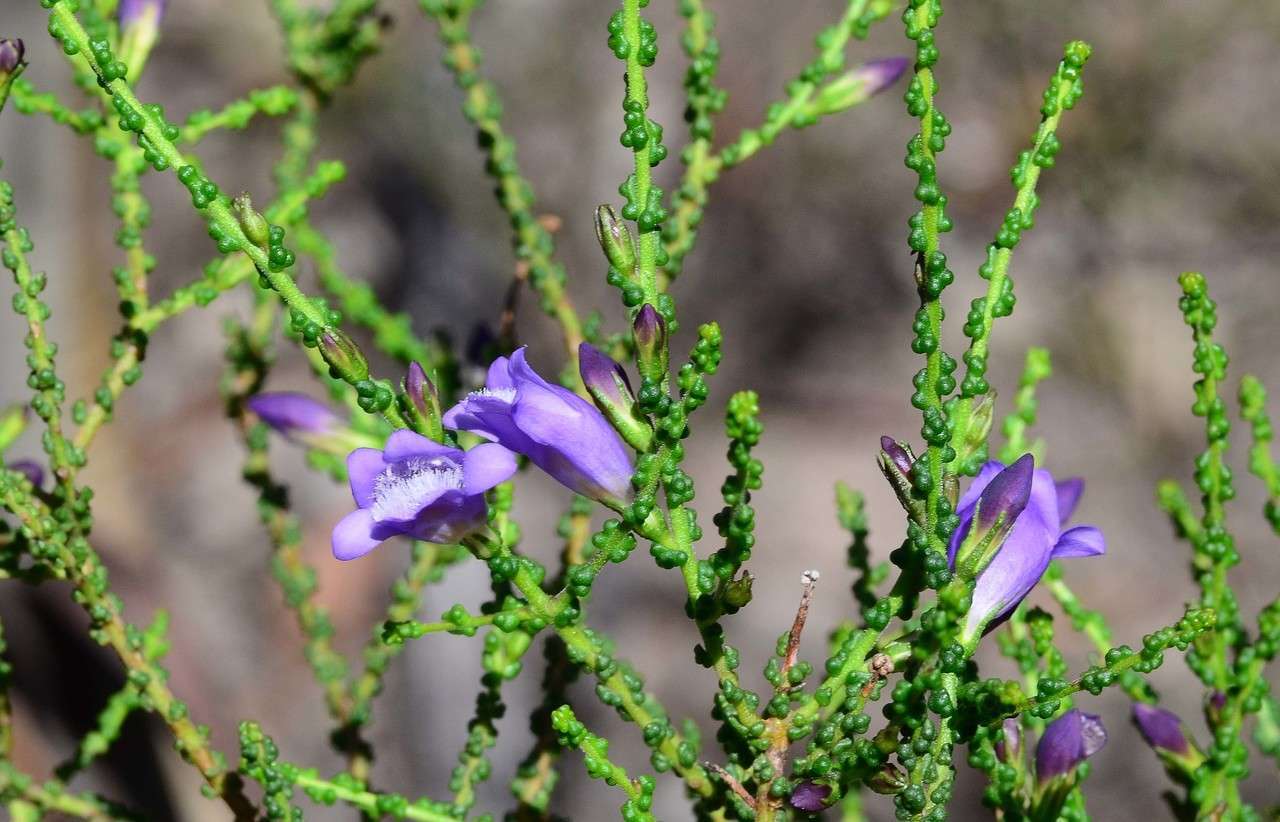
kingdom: Plantae
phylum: Tracheophyta
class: Magnoliopsida
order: Lamiales
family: Scrophulariaceae
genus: Eremophila
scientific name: Eremophila gibbifolia
